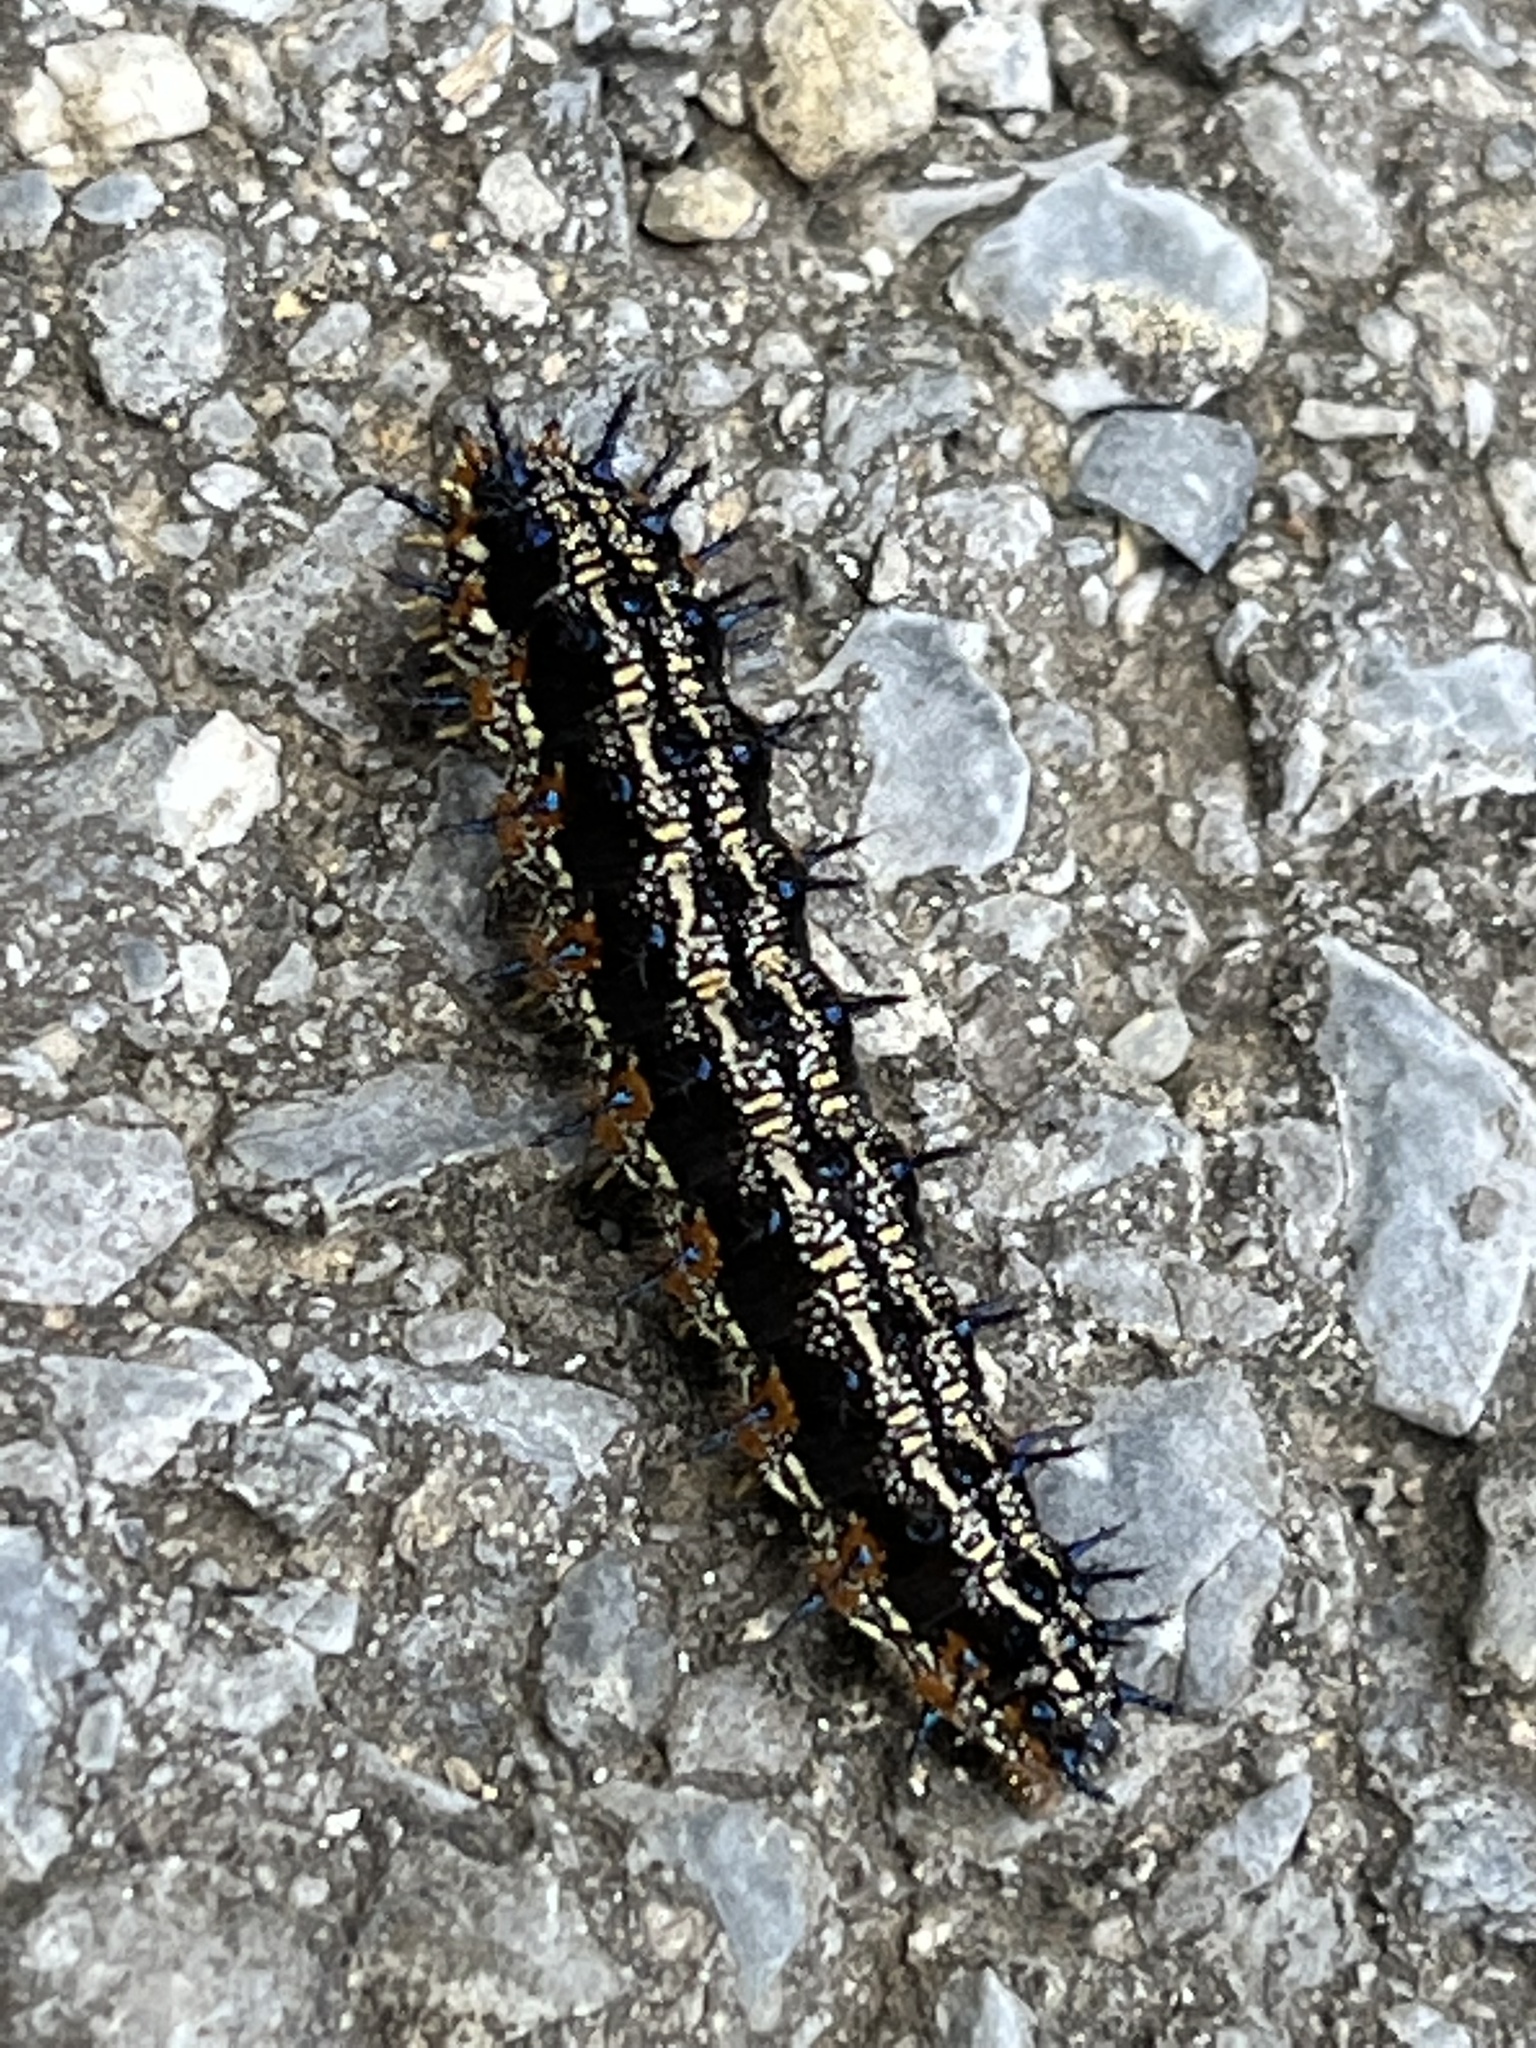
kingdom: Animalia
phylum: Arthropoda
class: Insecta
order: Lepidoptera
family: Nymphalidae
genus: Junonia
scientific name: Junonia coenia
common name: Common buckeye
